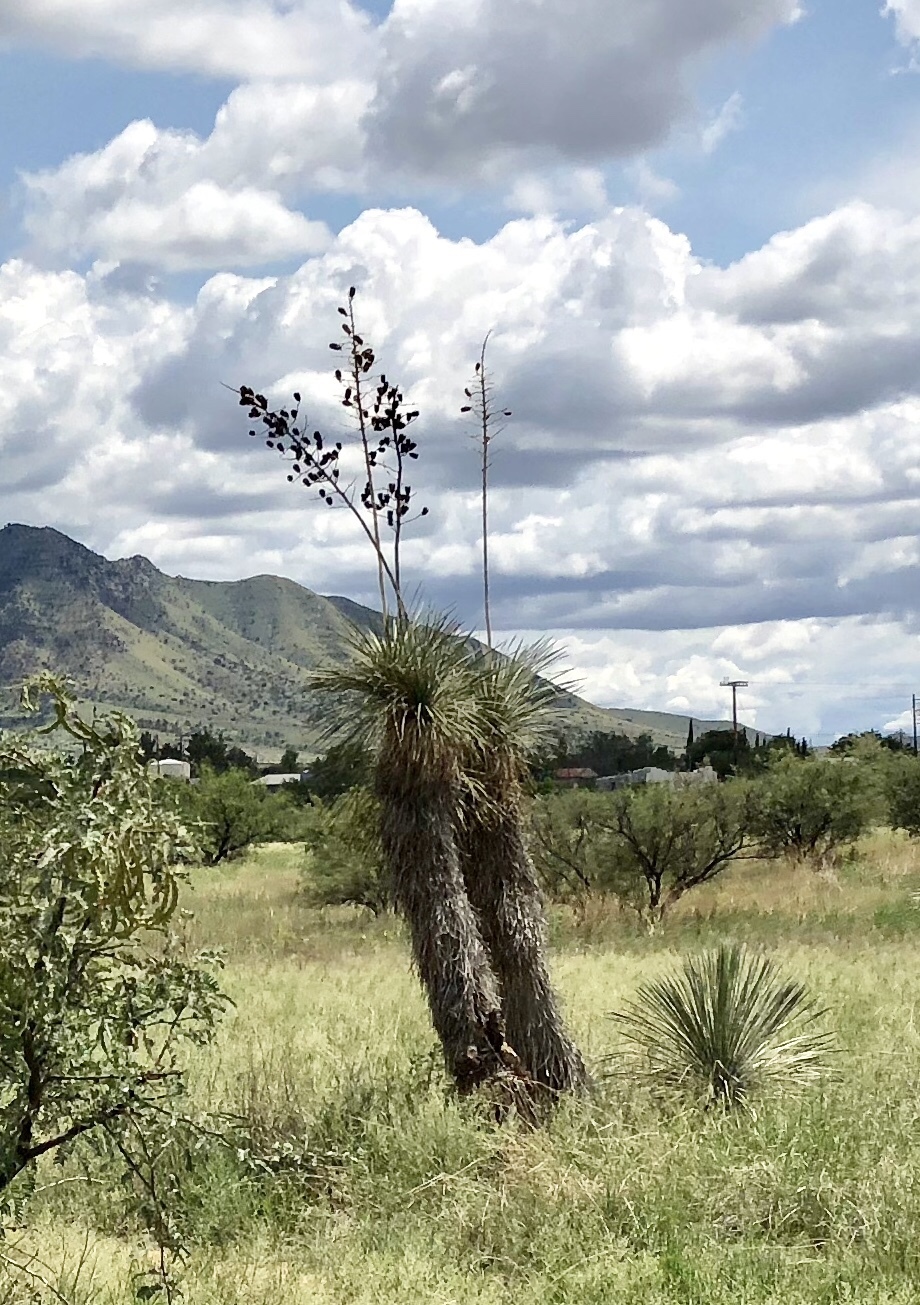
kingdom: Plantae
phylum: Tracheophyta
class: Liliopsida
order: Asparagales
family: Asparagaceae
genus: Yucca
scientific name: Yucca elata
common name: Palmella
